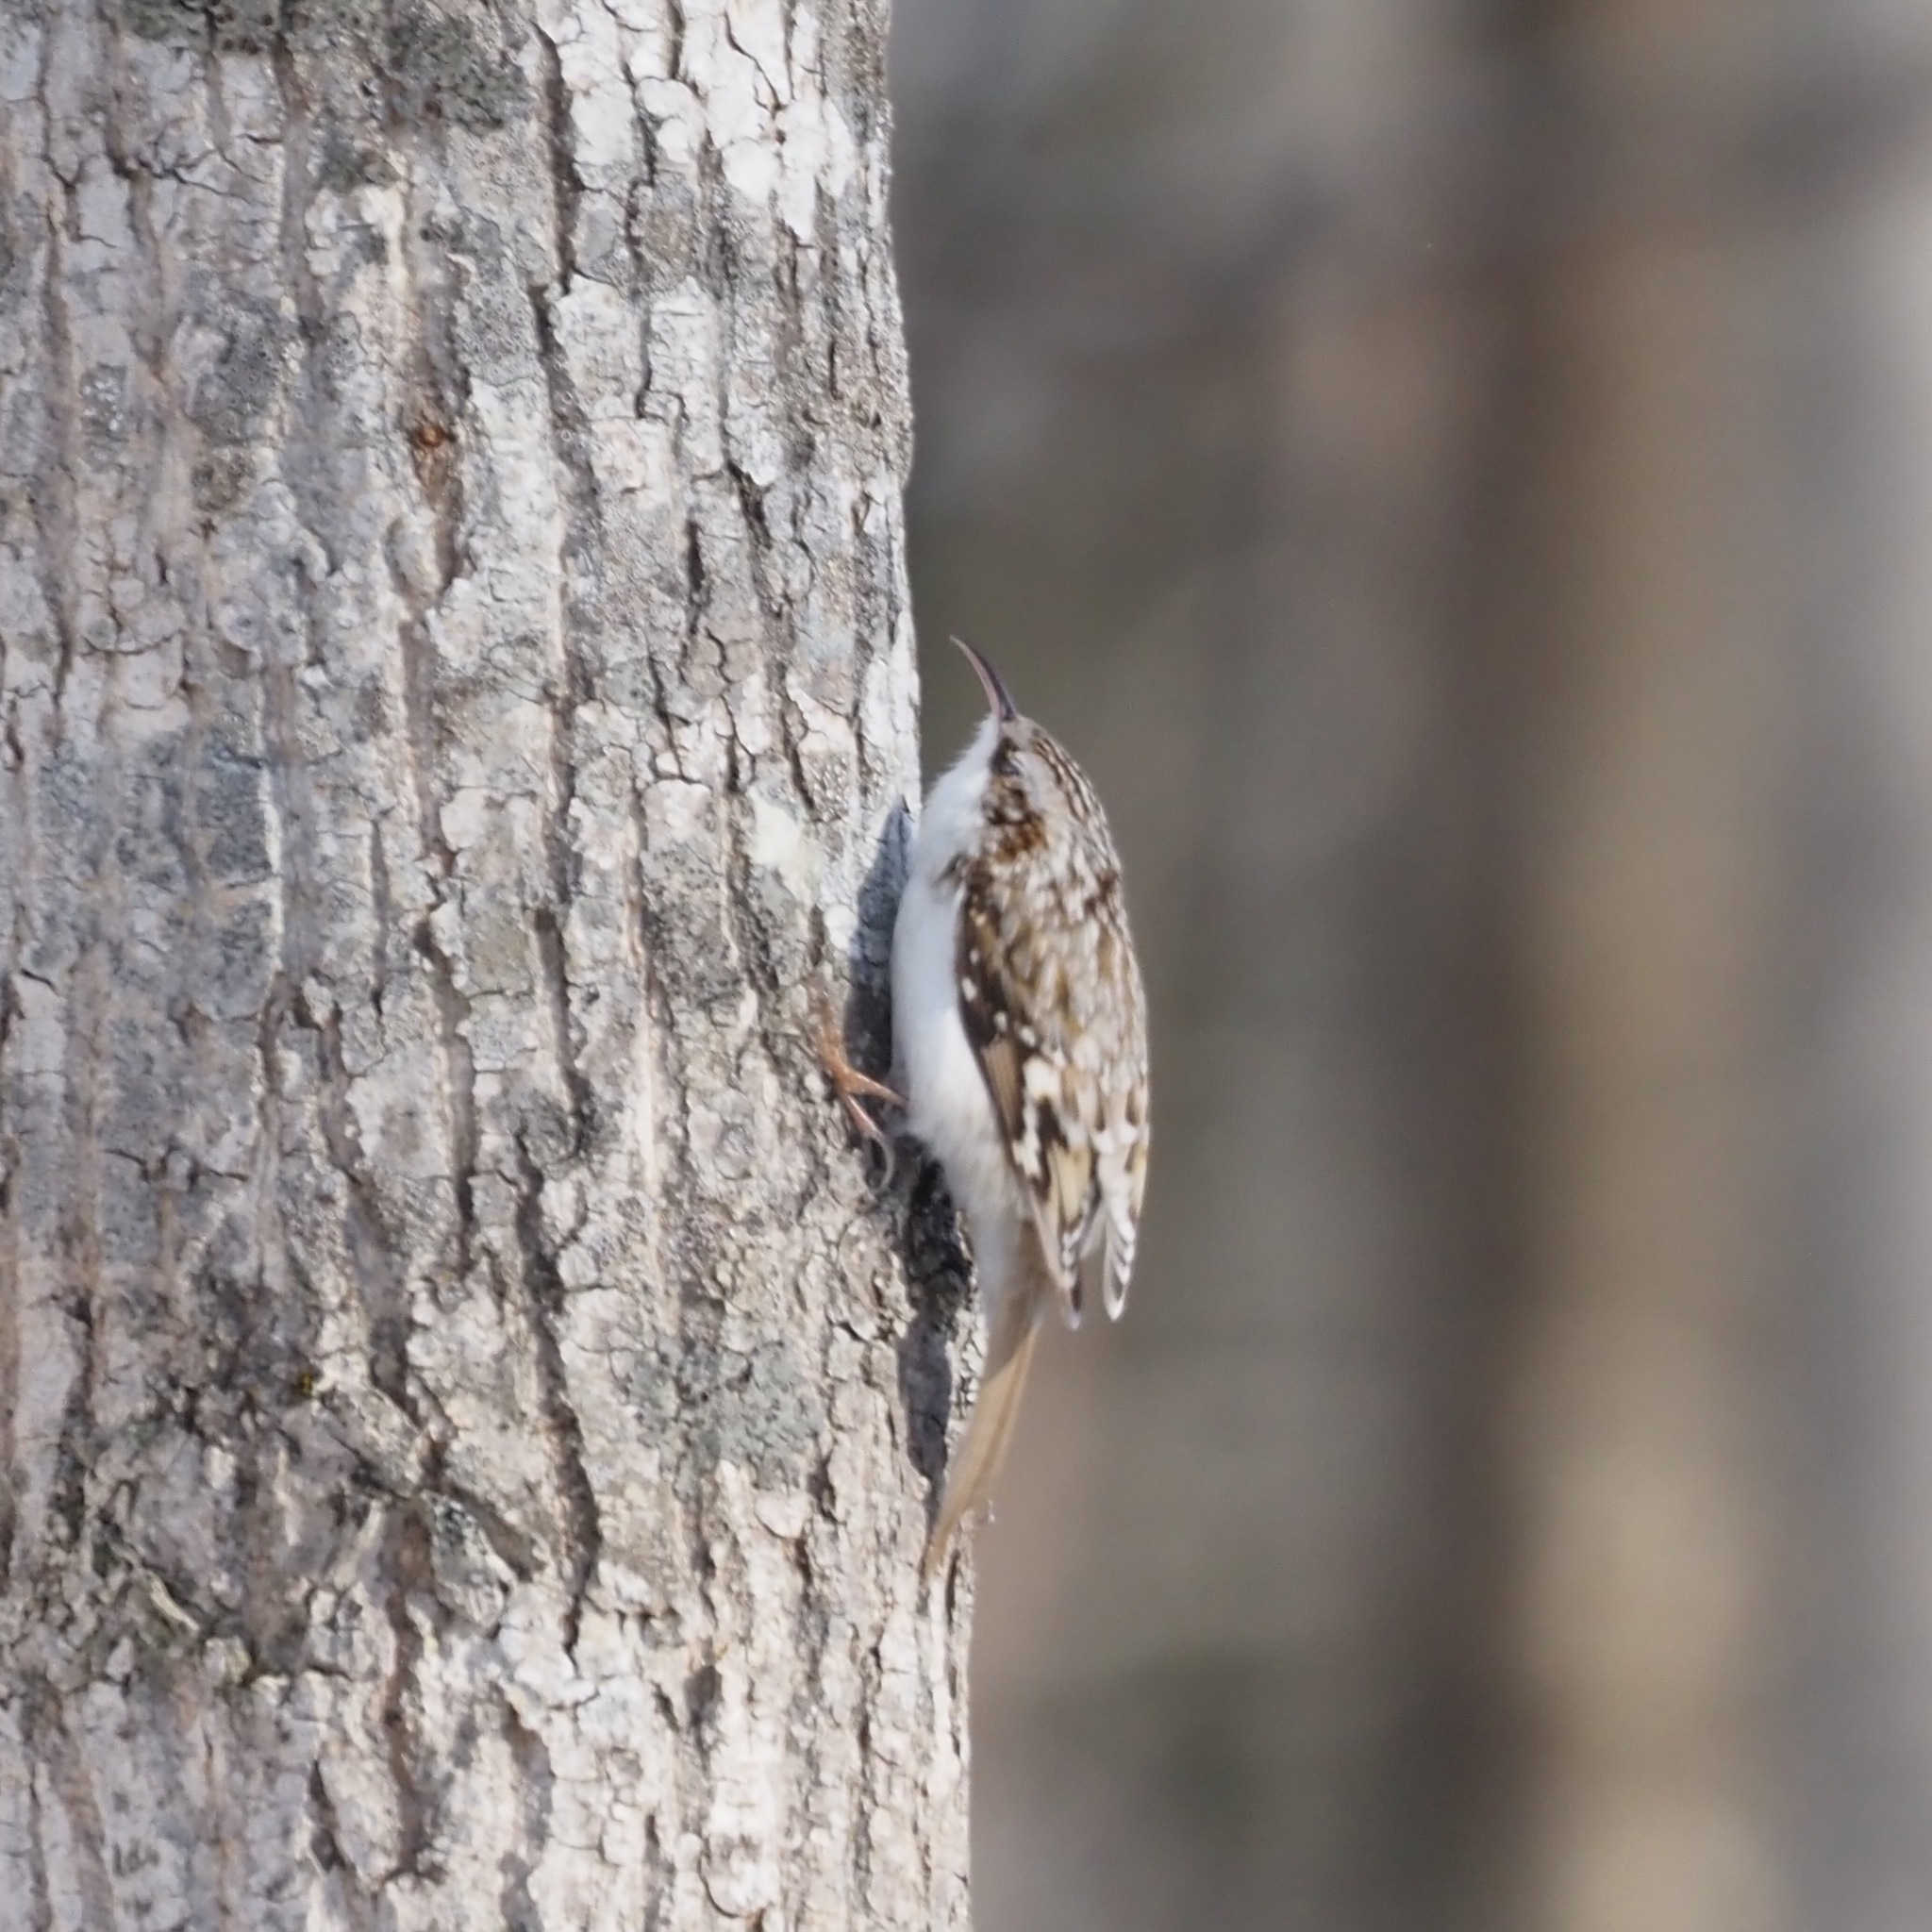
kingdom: Animalia
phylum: Chordata
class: Aves
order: Passeriformes
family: Certhiidae
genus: Certhia
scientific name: Certhia familiaris
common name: Eurasian treecreeper
